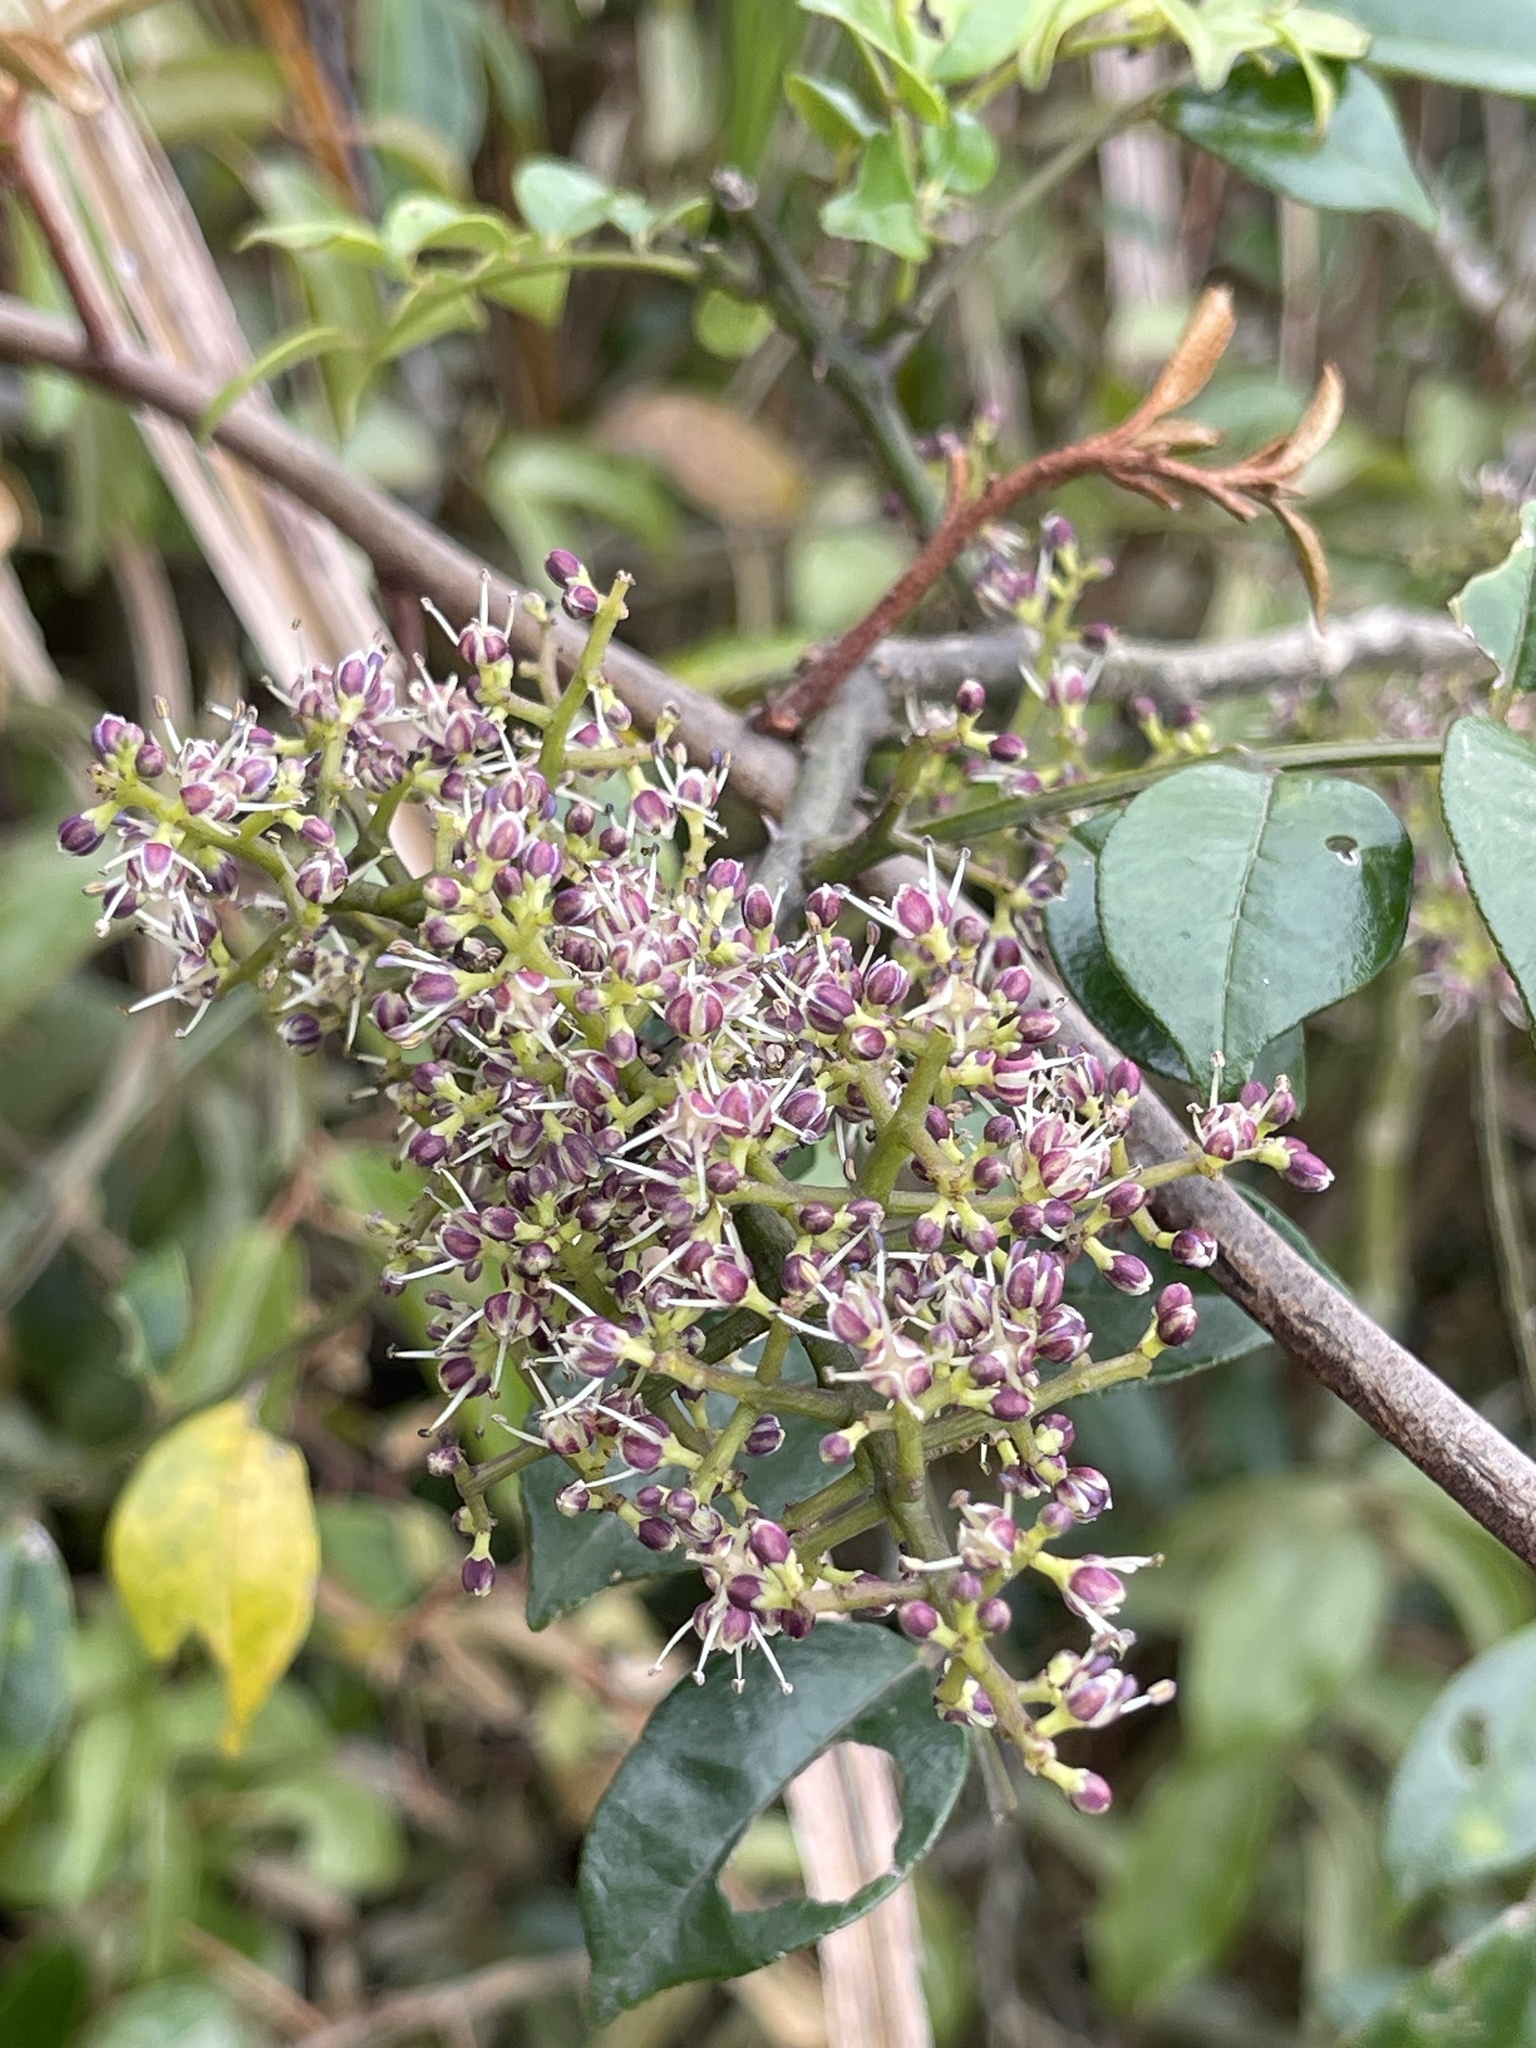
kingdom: Plantae
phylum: Tracheophyta
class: Magnoliopsida
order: Sapindales
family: Rutaceae
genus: Zanthoxylum
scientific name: Zanthoxylum scandens
